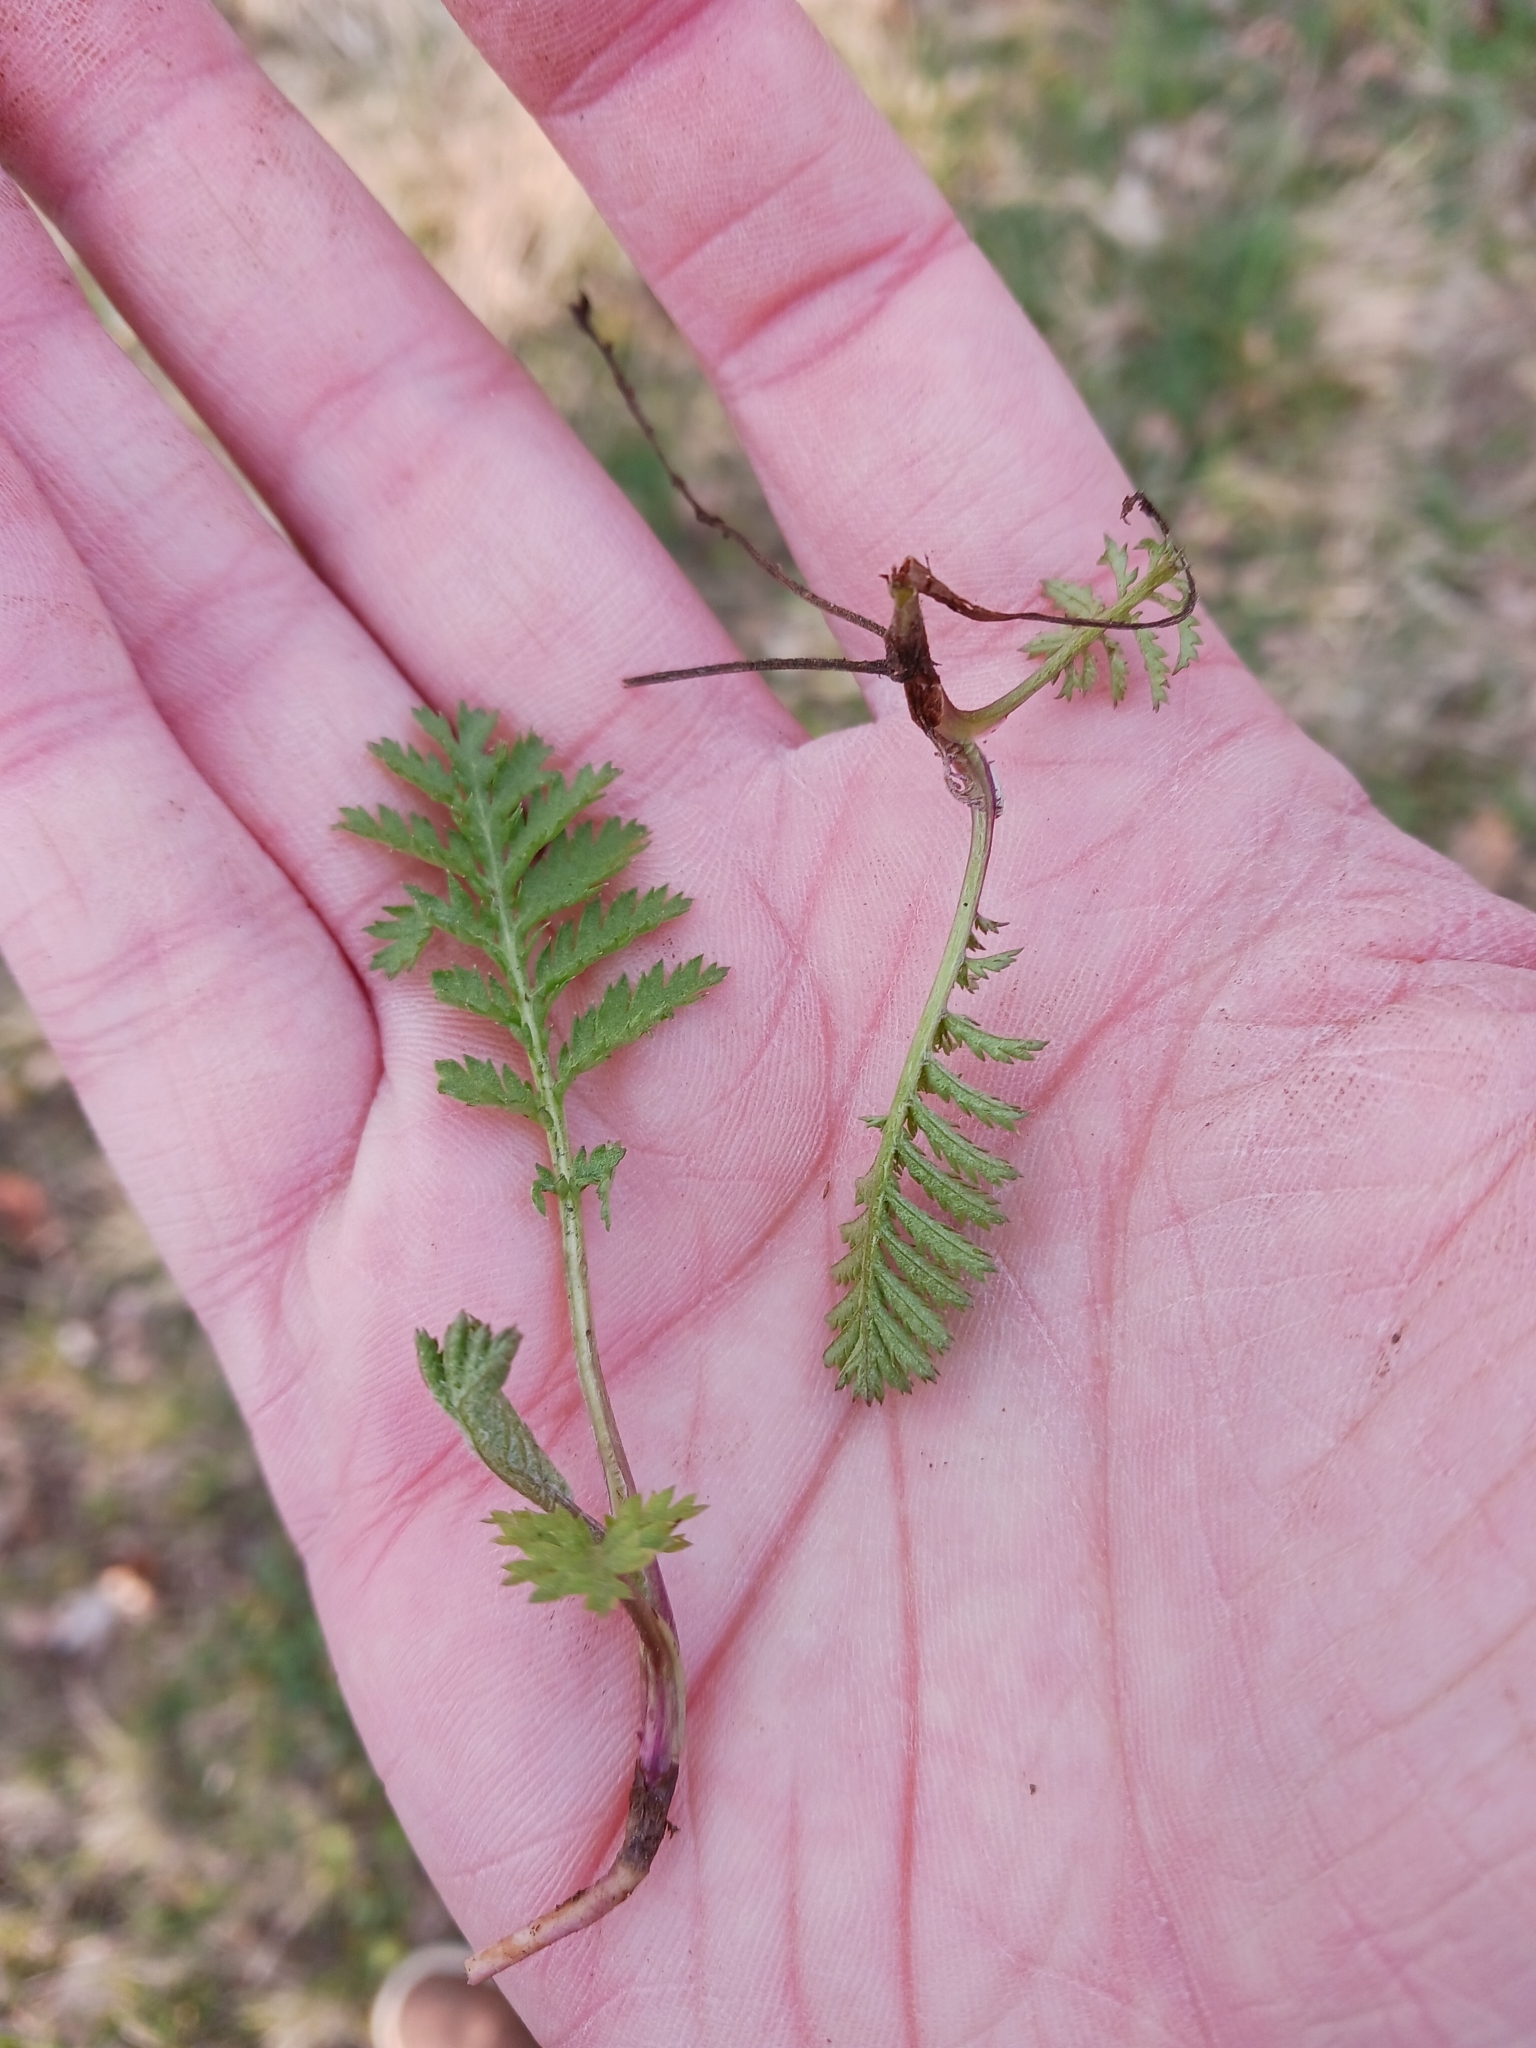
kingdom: Plantae
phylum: Tracheophyta
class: Magnoliopsida
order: Asterales
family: Asteraceae
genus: Tanacetum
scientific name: Tanacetum vulgare
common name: Common tansy
